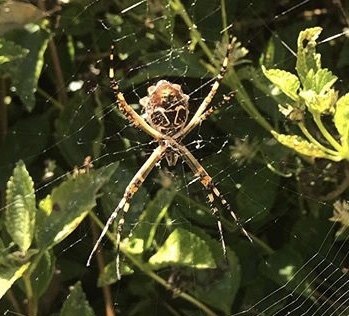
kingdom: Animalia
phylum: Arthropoda
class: Arachnida
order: Araneae
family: Araneidae
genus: Argiope
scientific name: Argiope argentata
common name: Orb weavers
